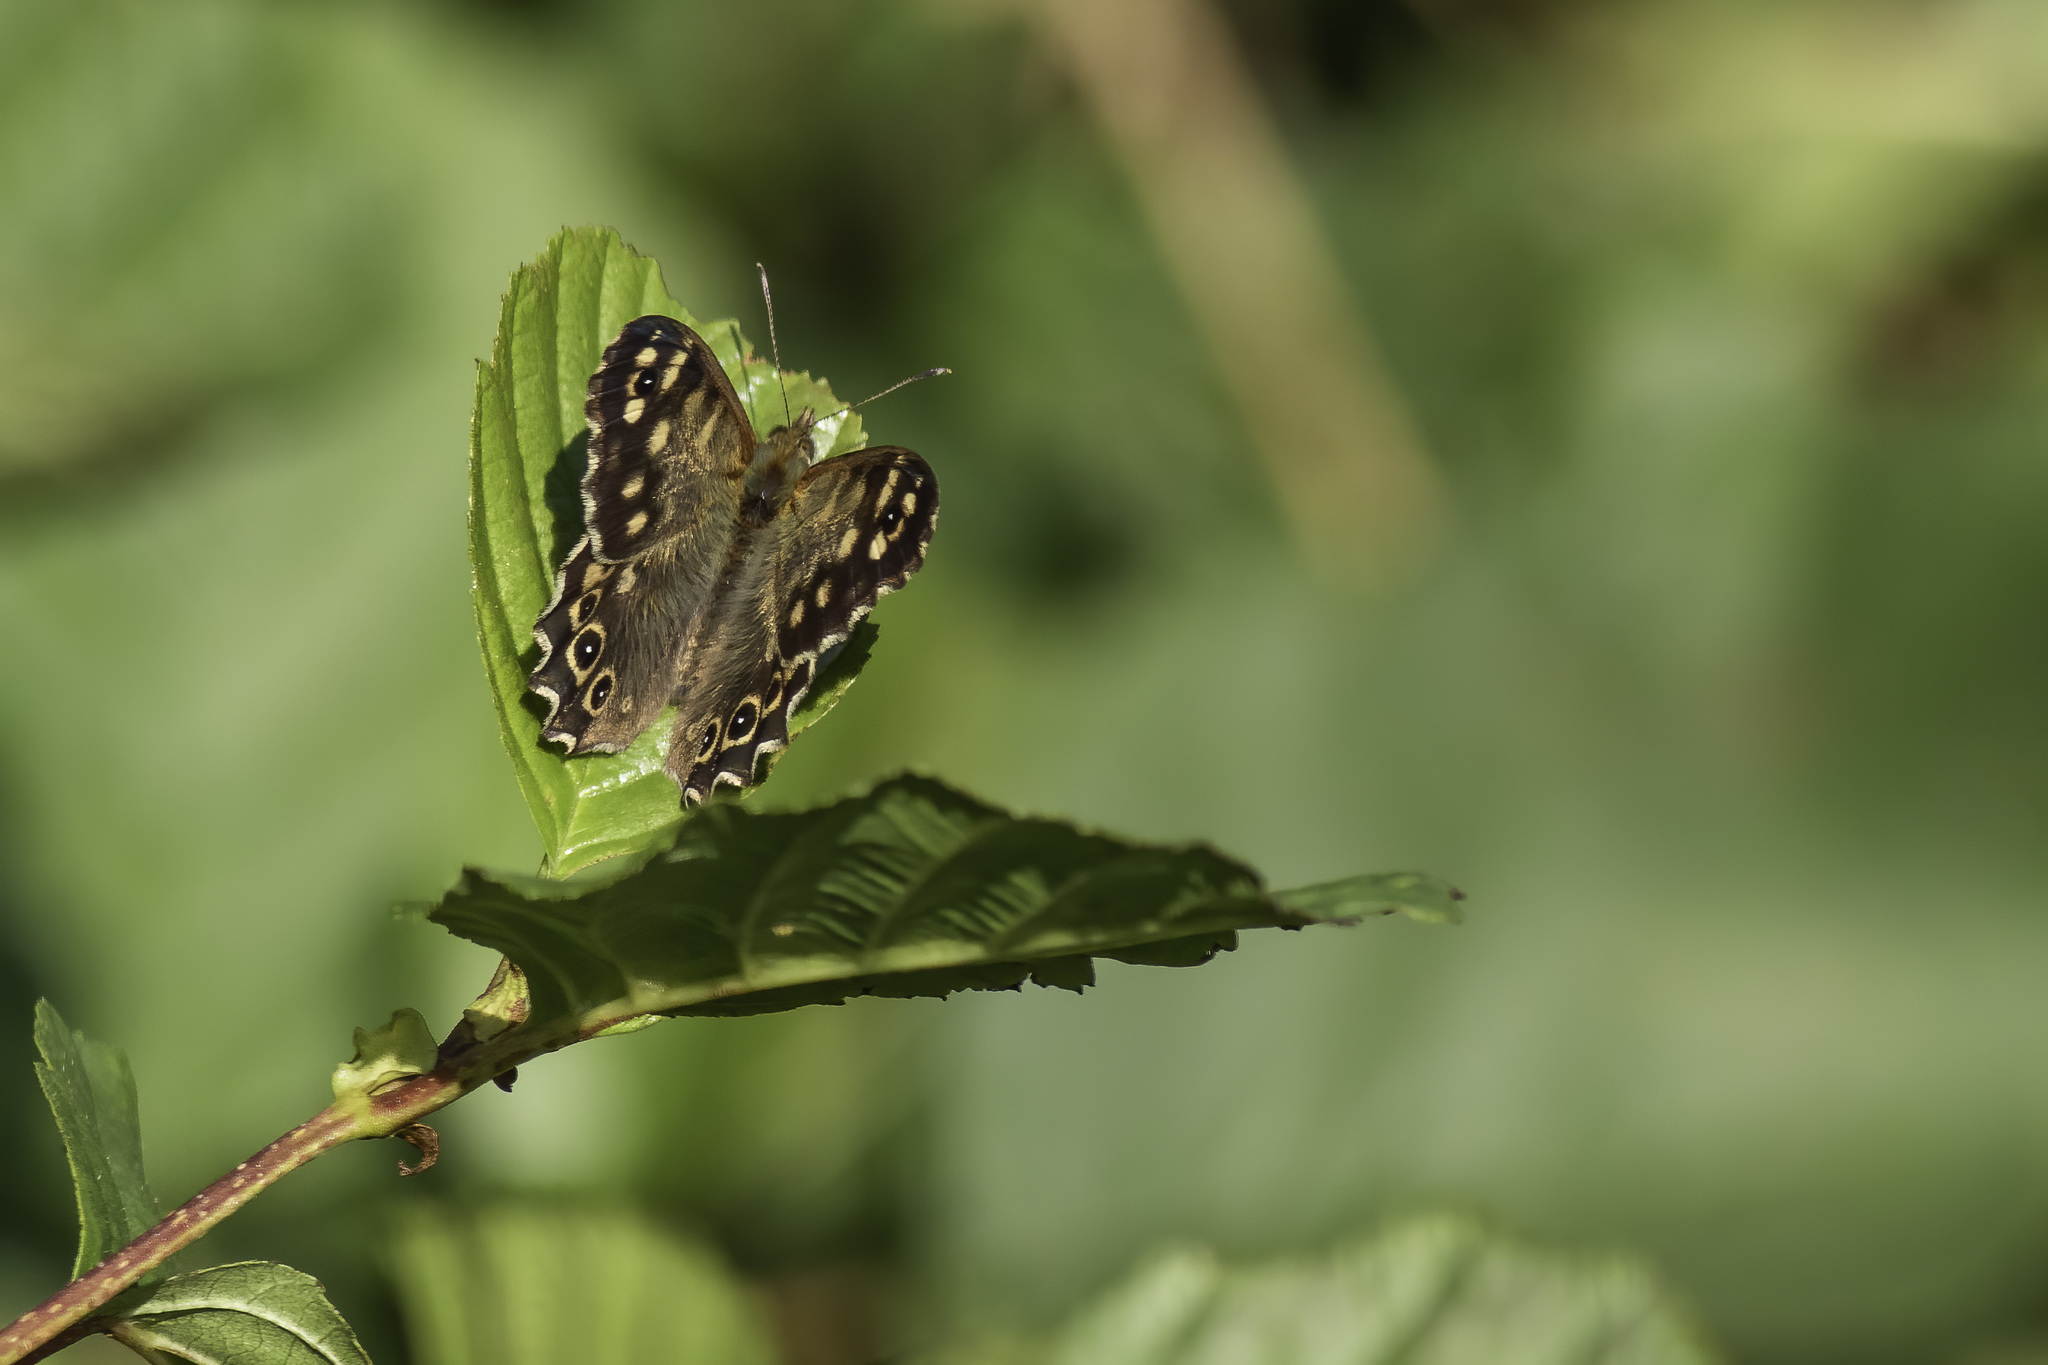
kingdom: Animalia
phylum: Arthropoda
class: Insecta
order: Lepidoptera
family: Nymphalidae
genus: Pararge
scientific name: Pararge aegeria
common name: Speckled wood
